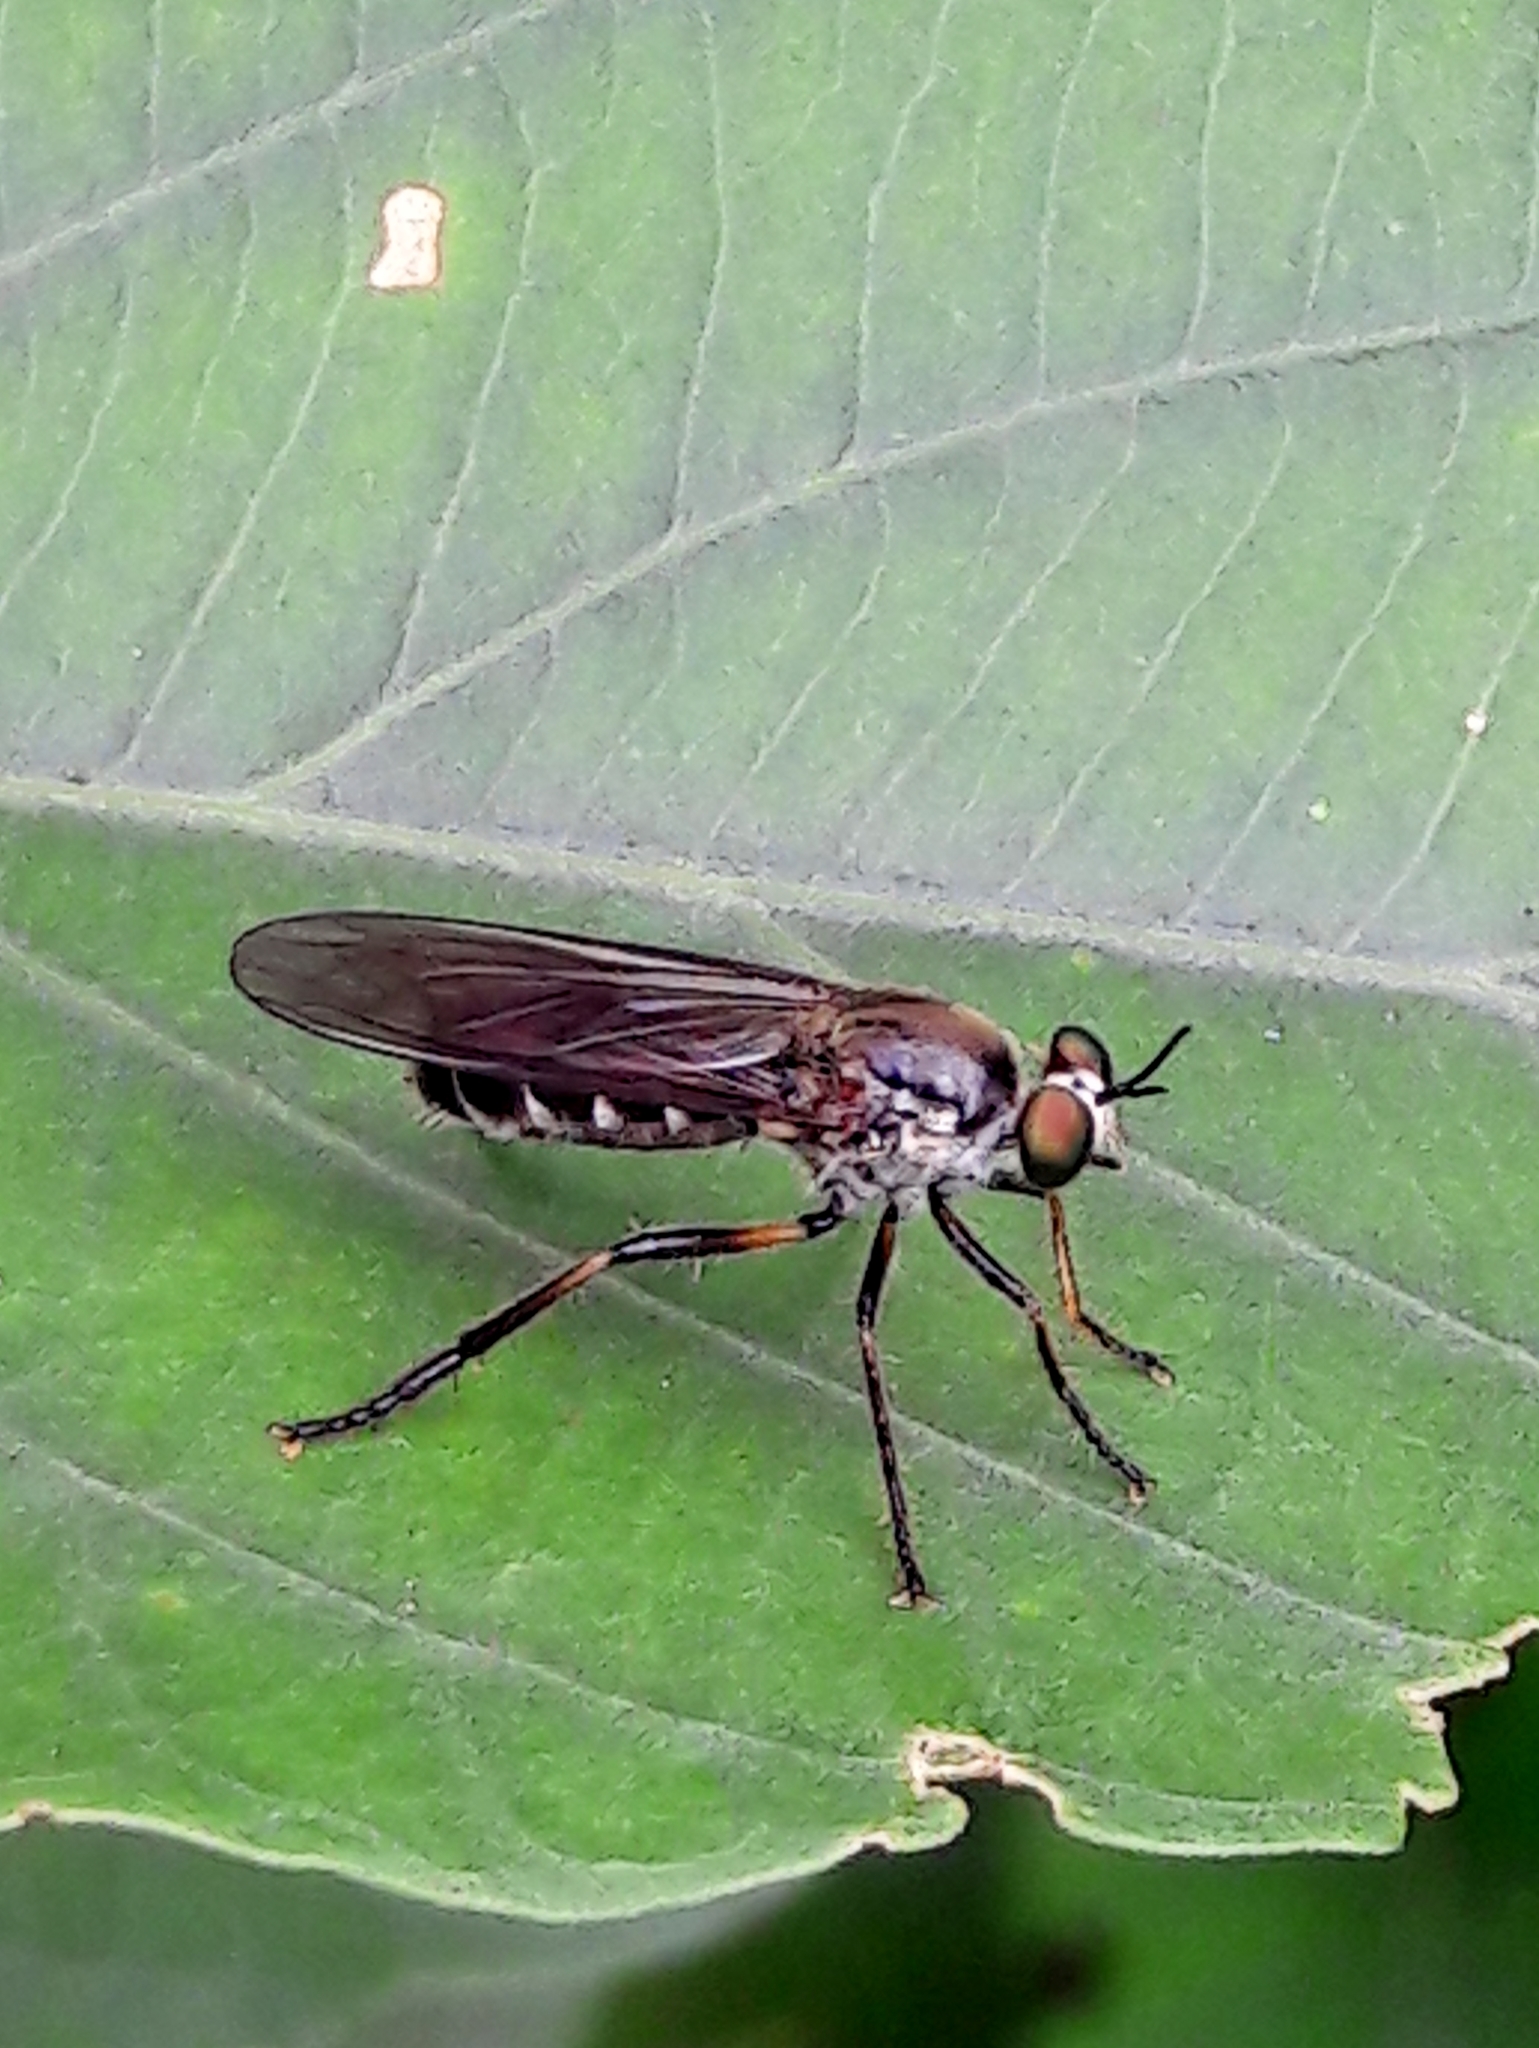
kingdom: Animalia
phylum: Arthropoda
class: Insecta
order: Diptera
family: Asilidae
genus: Aphestia
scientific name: Aphestia annulipes
